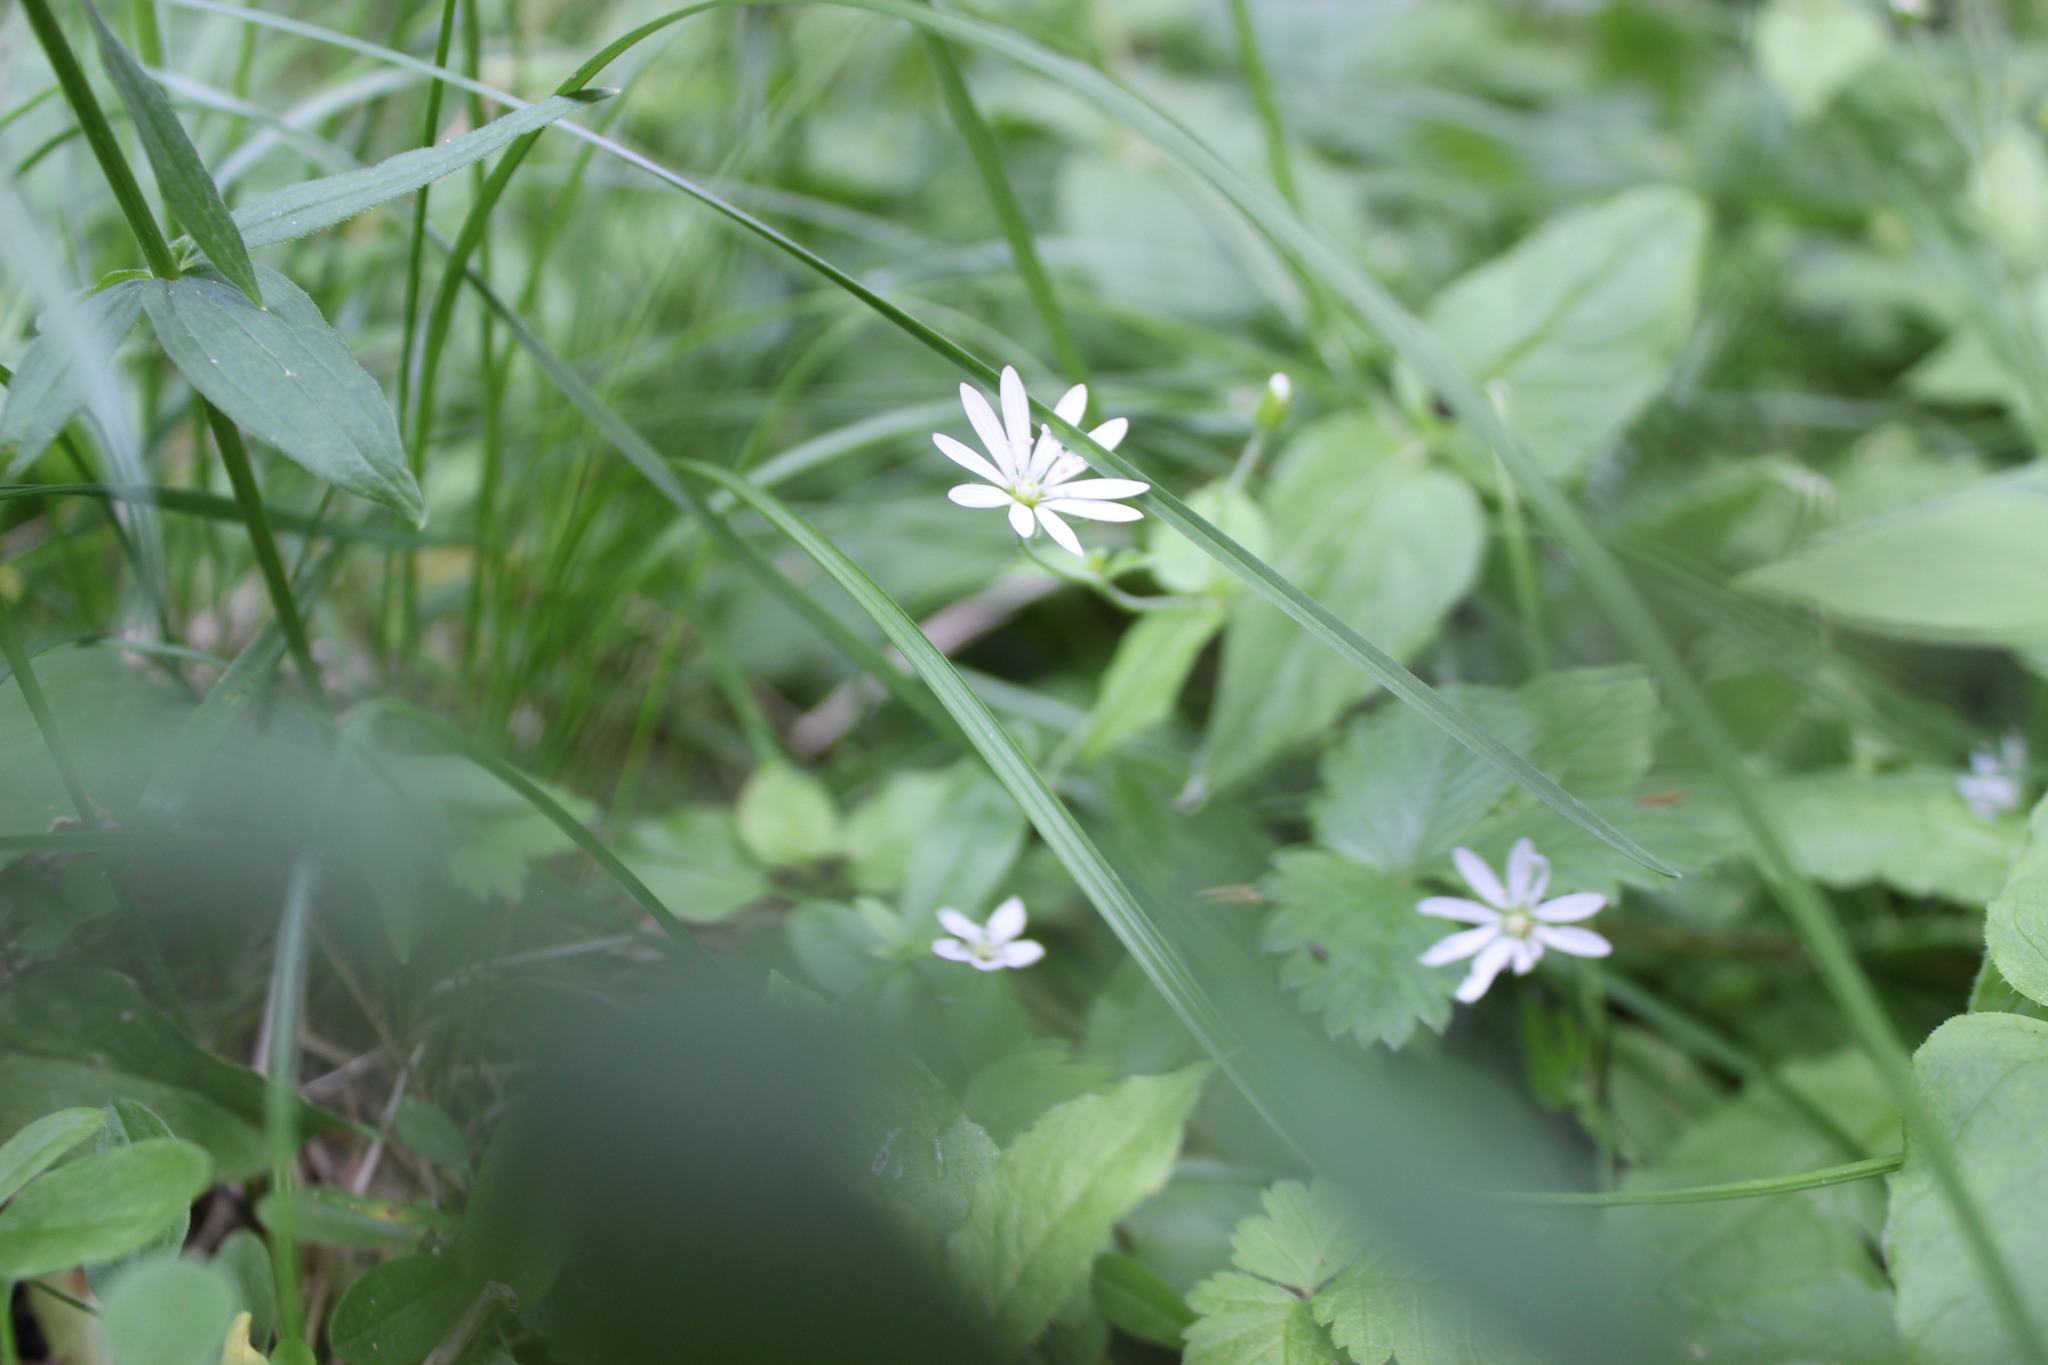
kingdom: Plantae
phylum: Tracheophyta
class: Magnoliopsida
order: Caryophyllales
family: Caryophyllaceae
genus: Stellaria
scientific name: Stellaria bungeana
